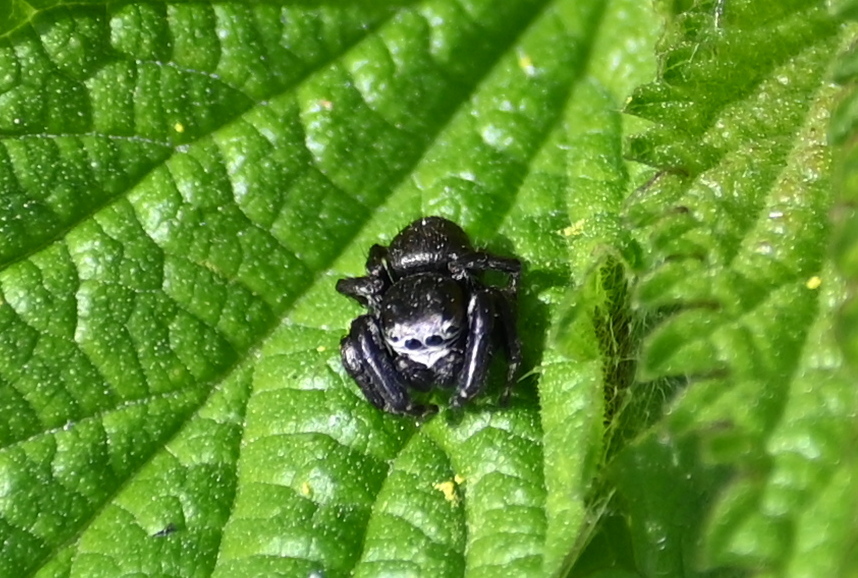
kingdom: Animalia
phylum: Arthropoda
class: Arachnida
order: Araneae
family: Salticidae
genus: Evarcha
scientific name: Evarcha arcuata
